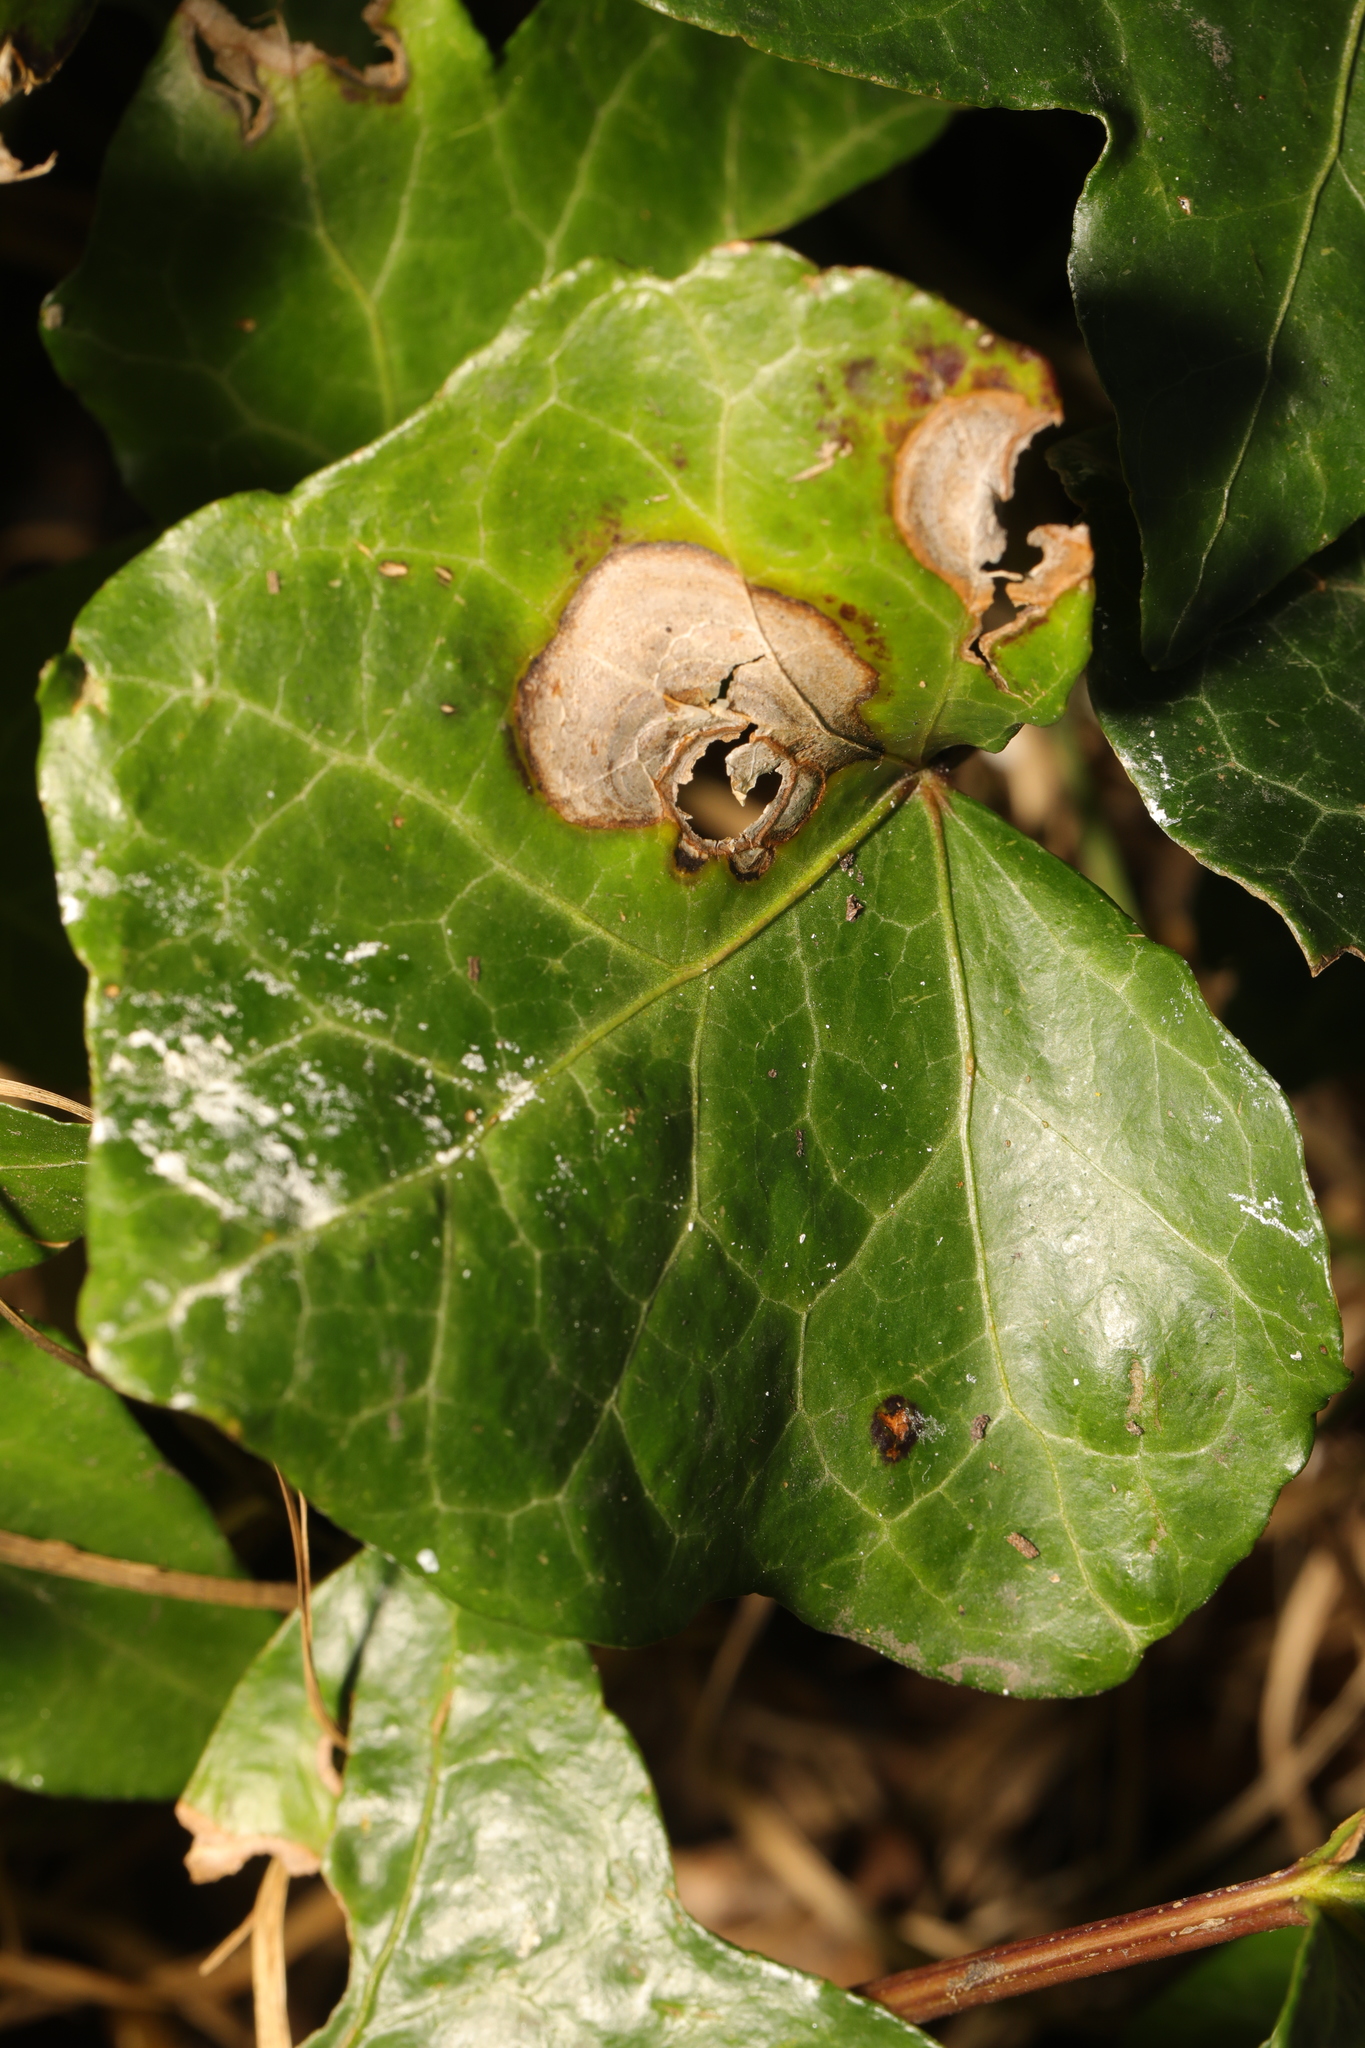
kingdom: Fungi
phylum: Ascomycota
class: Dothideomycetes
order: Pleosporales
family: Didymellaceae
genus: Boeremia
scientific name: Boeremia hedericola
